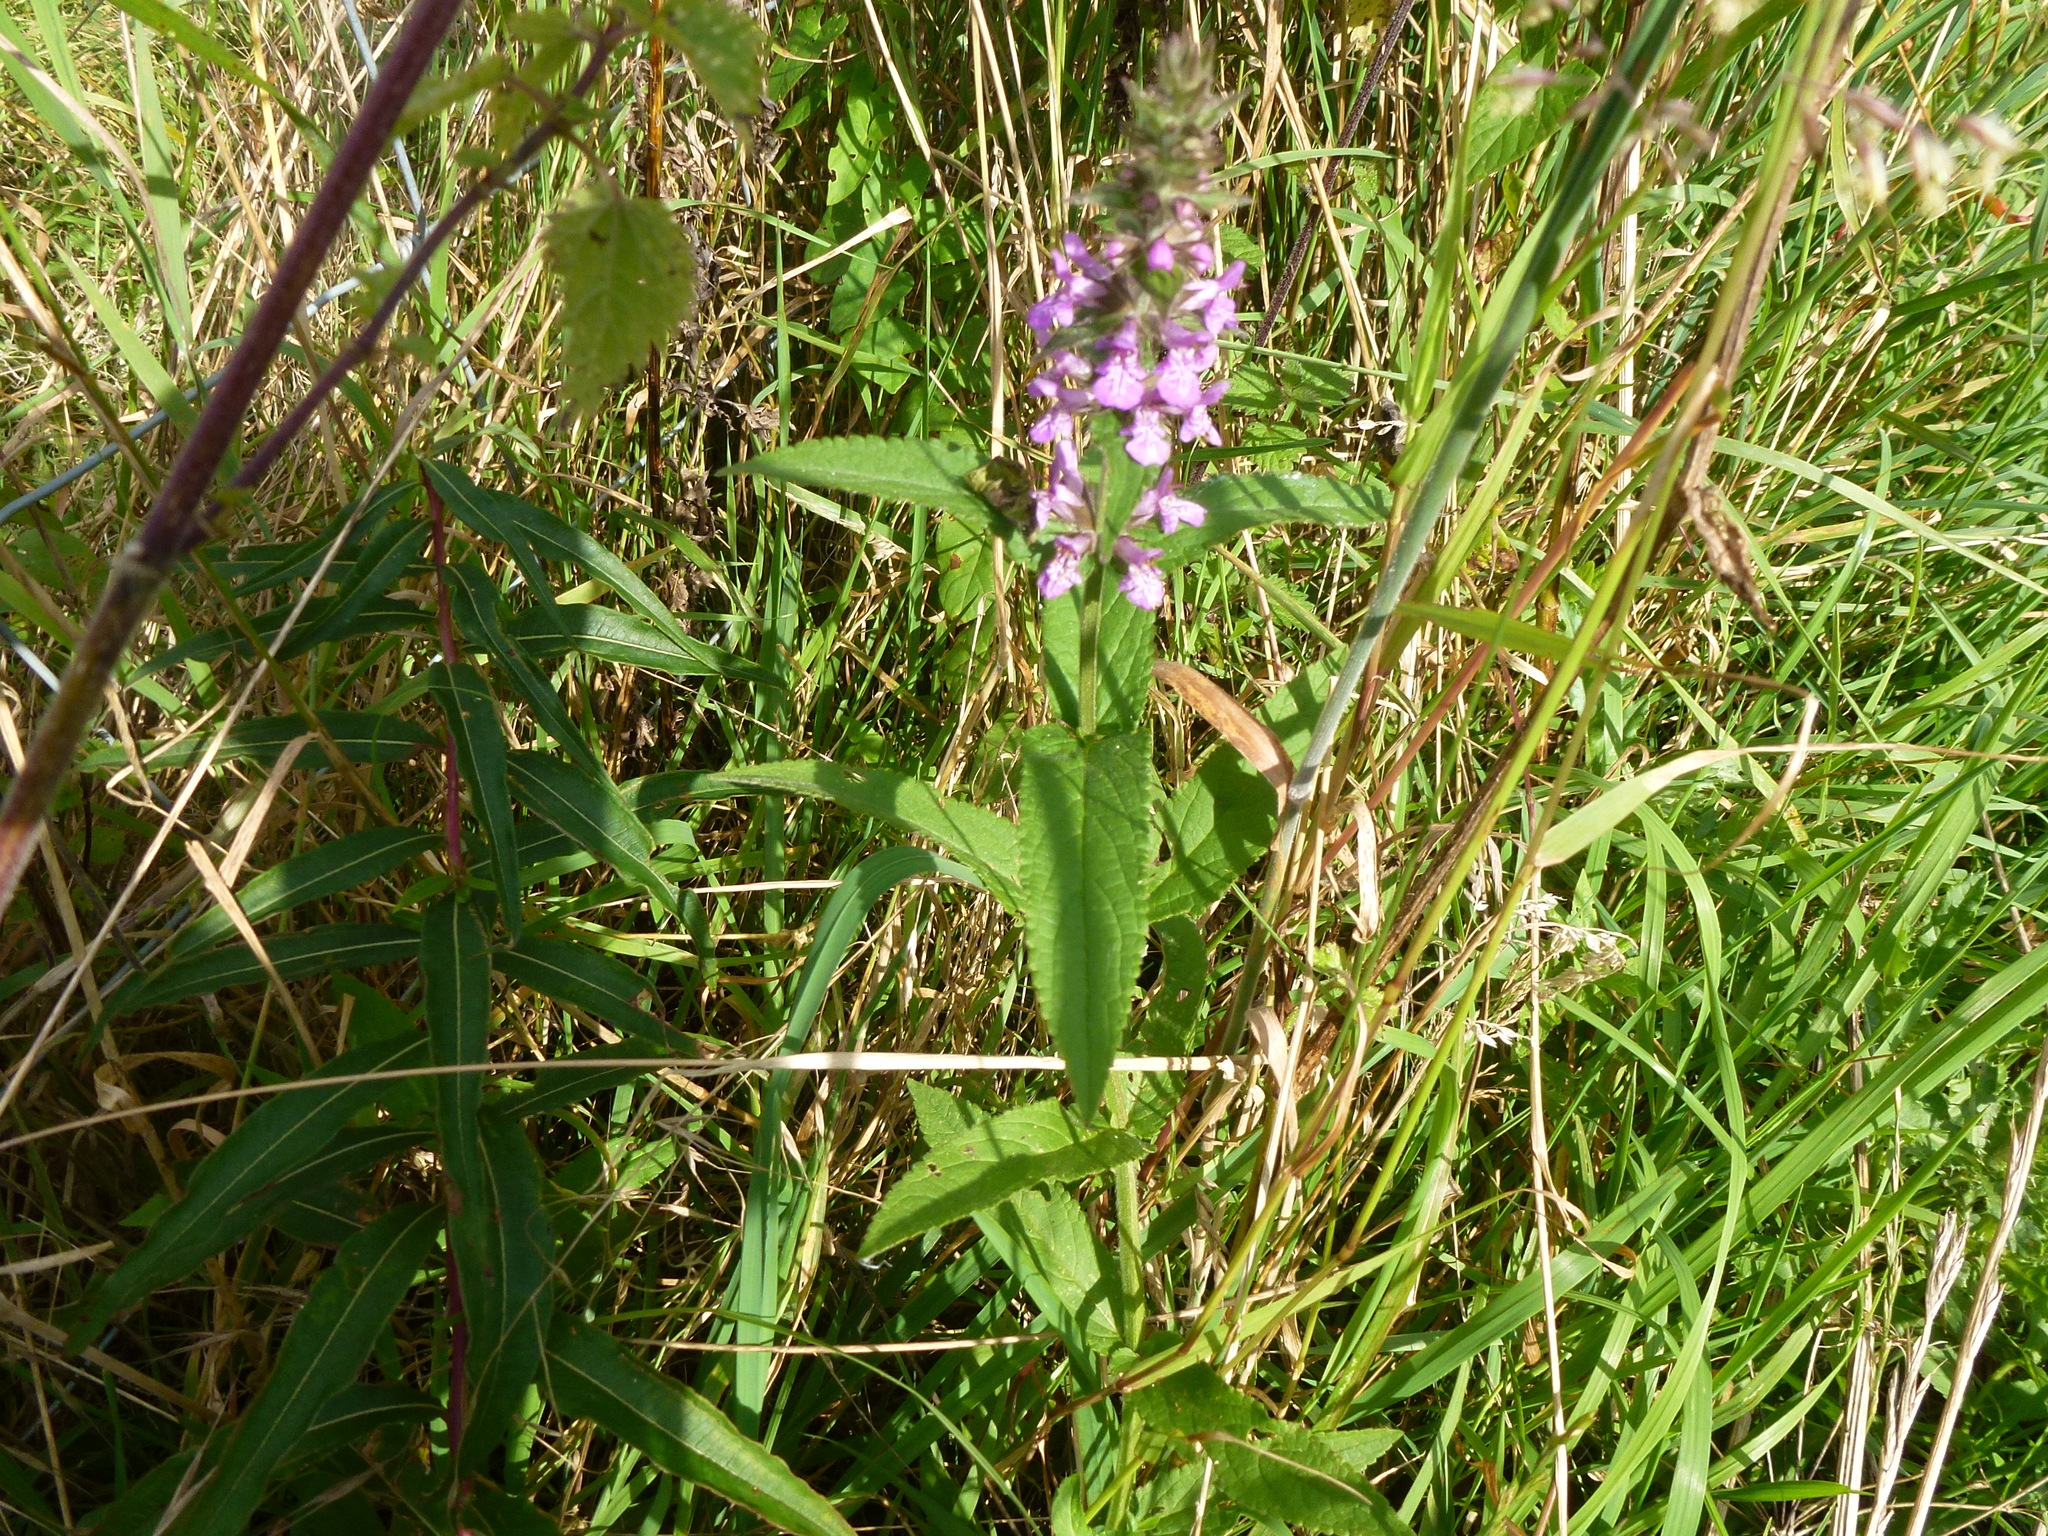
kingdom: Plantae
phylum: Tracheophyta
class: Magnoliopsida
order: Lamiales
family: Lamiaceae
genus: Stachys
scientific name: Stachys palustris
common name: Marsh woundwort
